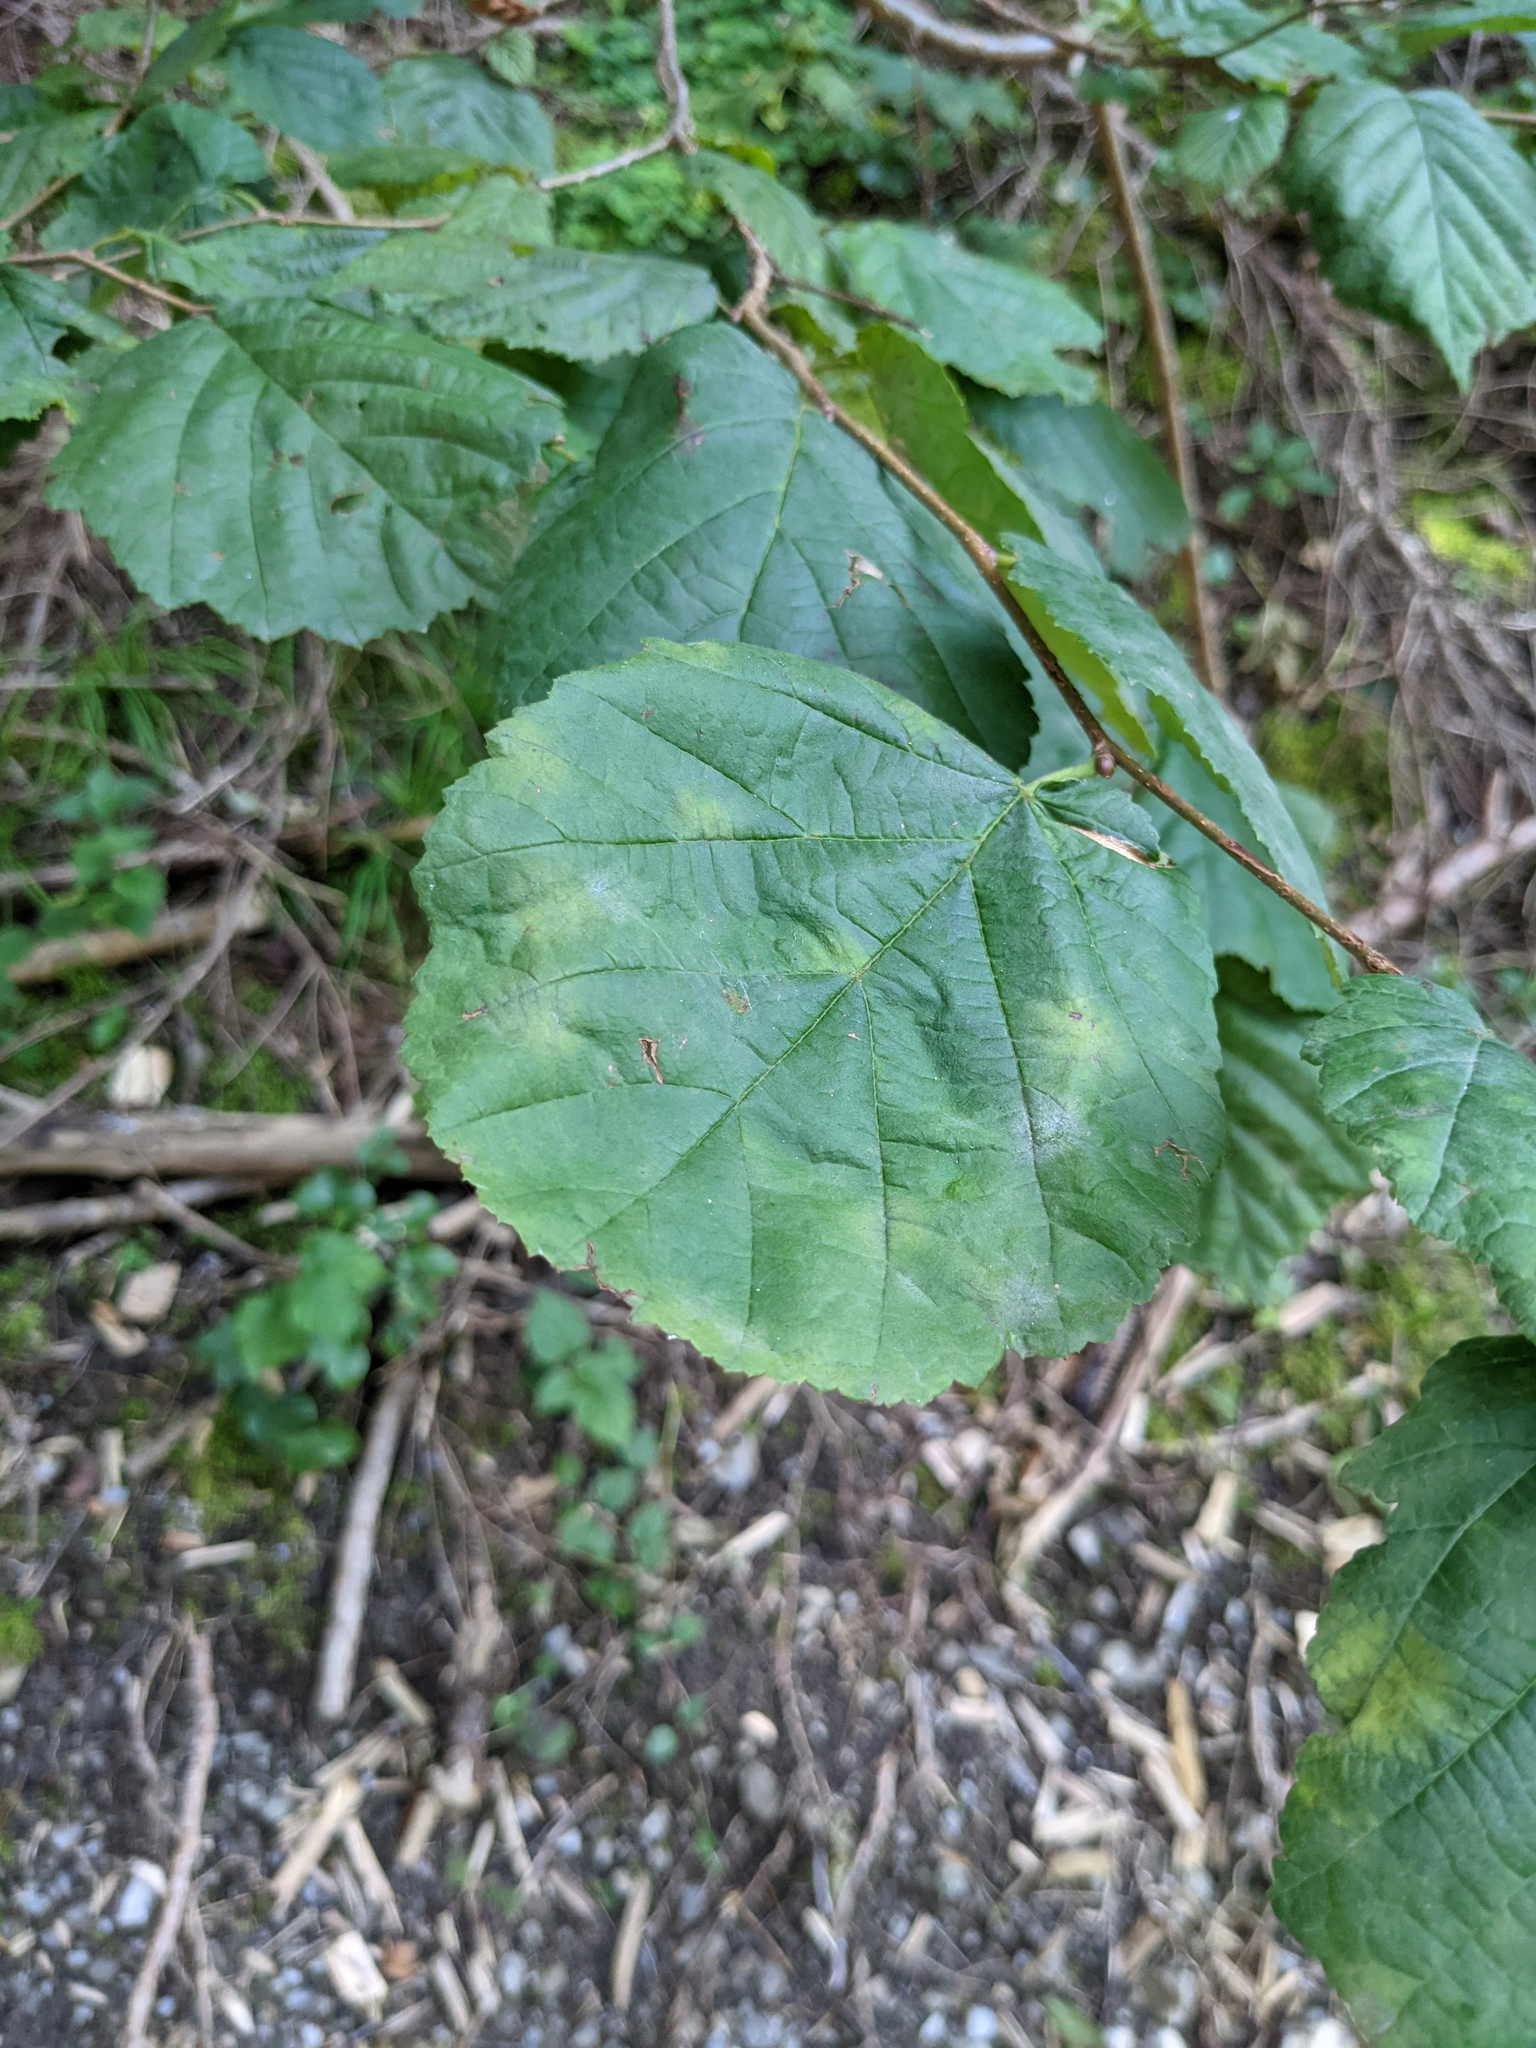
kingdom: Plantae
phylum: Tracheophyta
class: Magnoliopsida
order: Fagales
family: Betulaceae
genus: Corylus
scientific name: Corylus avellana
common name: European hazel
